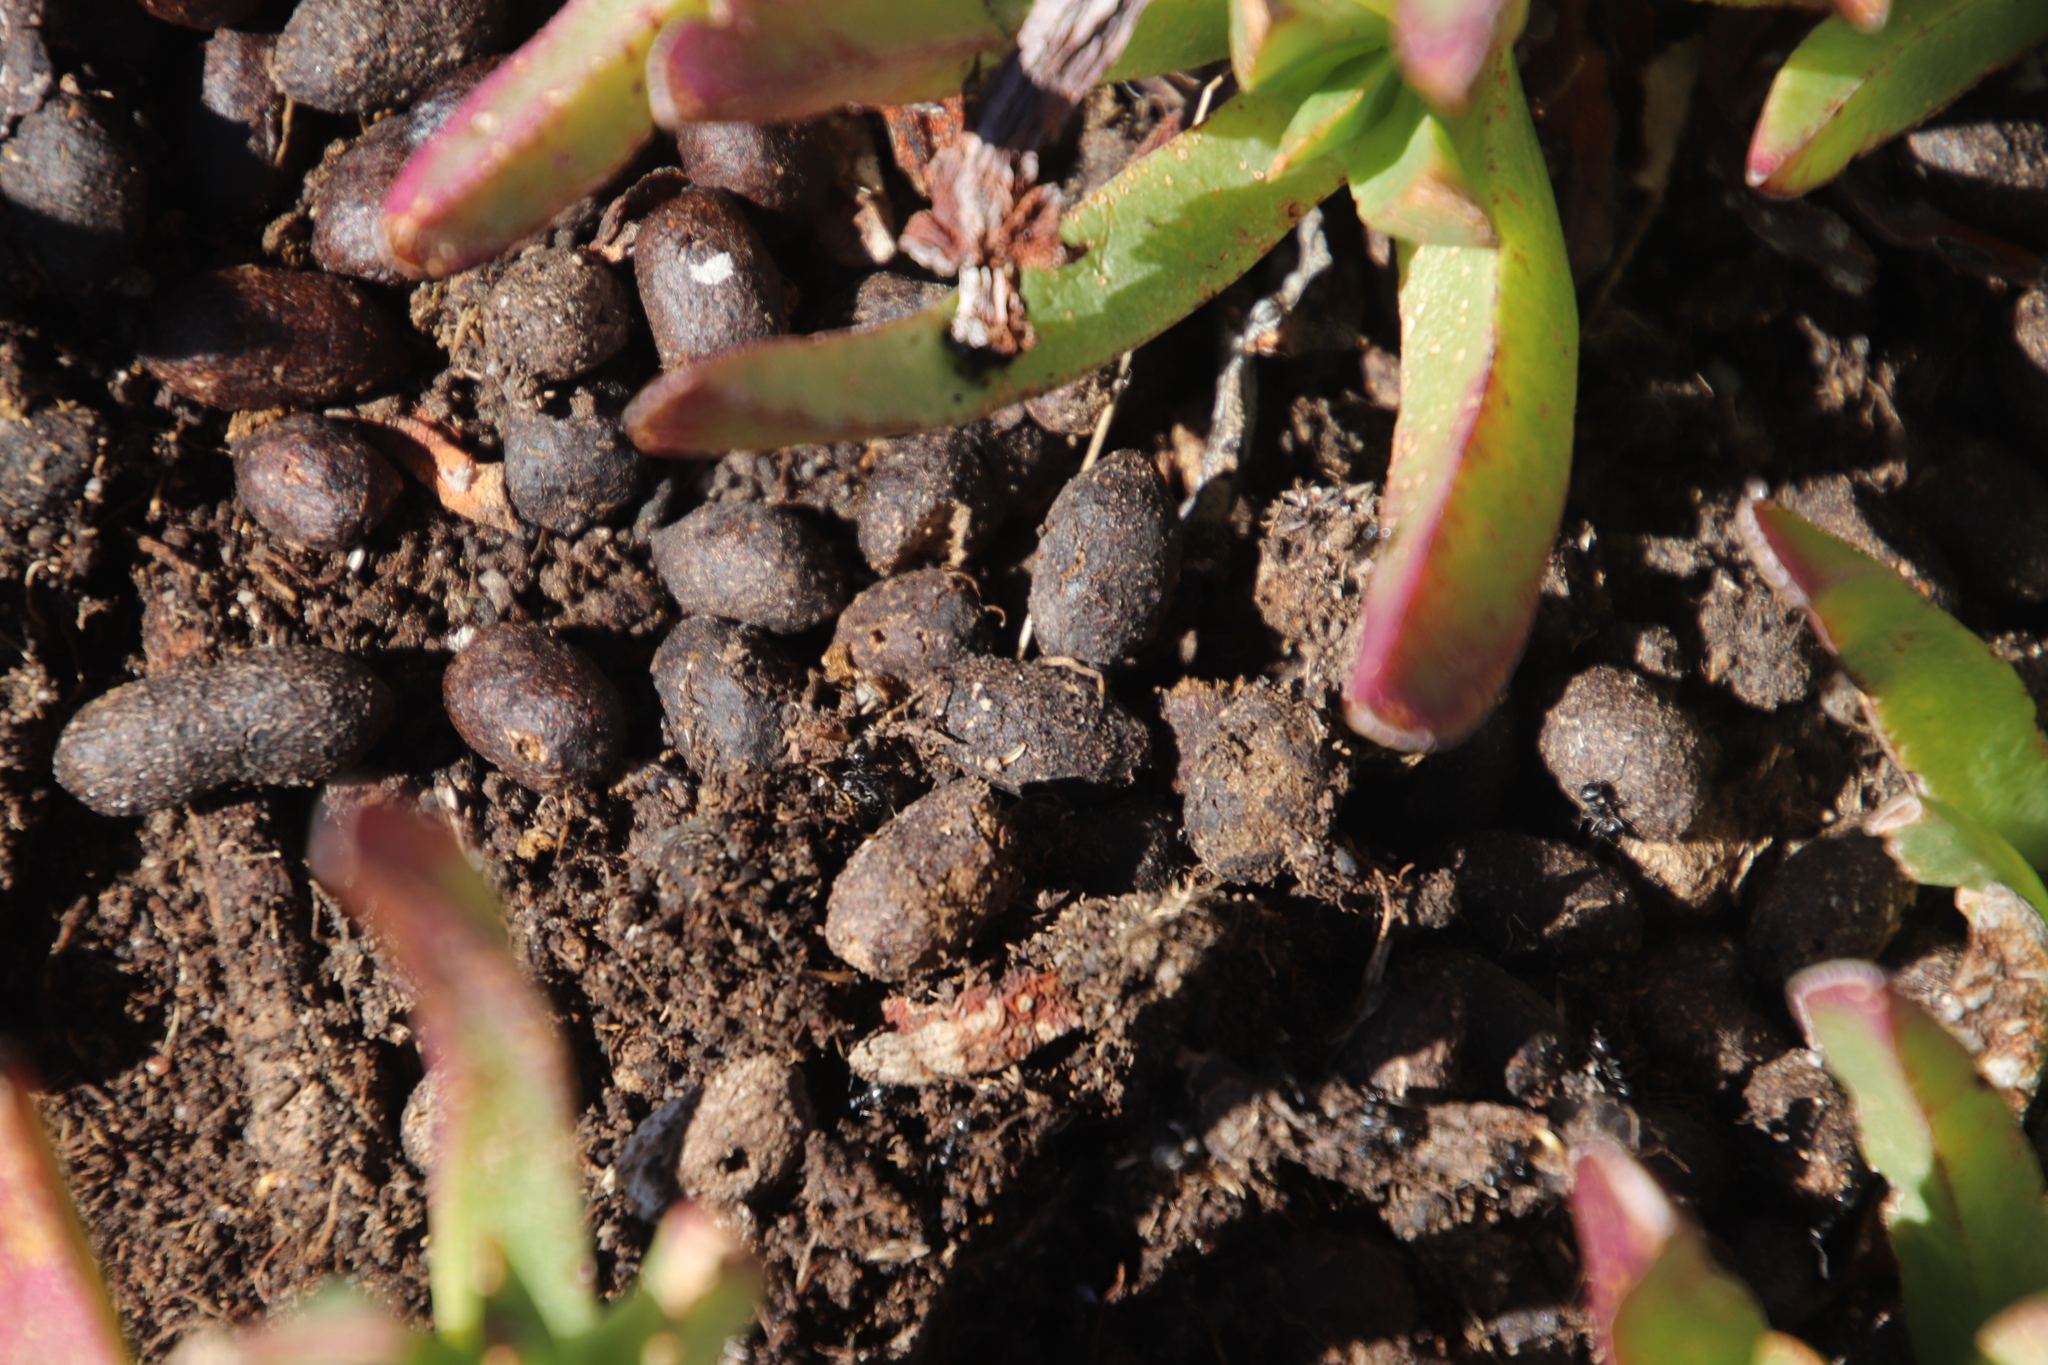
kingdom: Animalia
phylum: Chordata
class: Mammalia
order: Artiodactyla
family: Bovidae
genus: Oreotragus
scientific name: Oreotragus oreotragus
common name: Klipspringer
